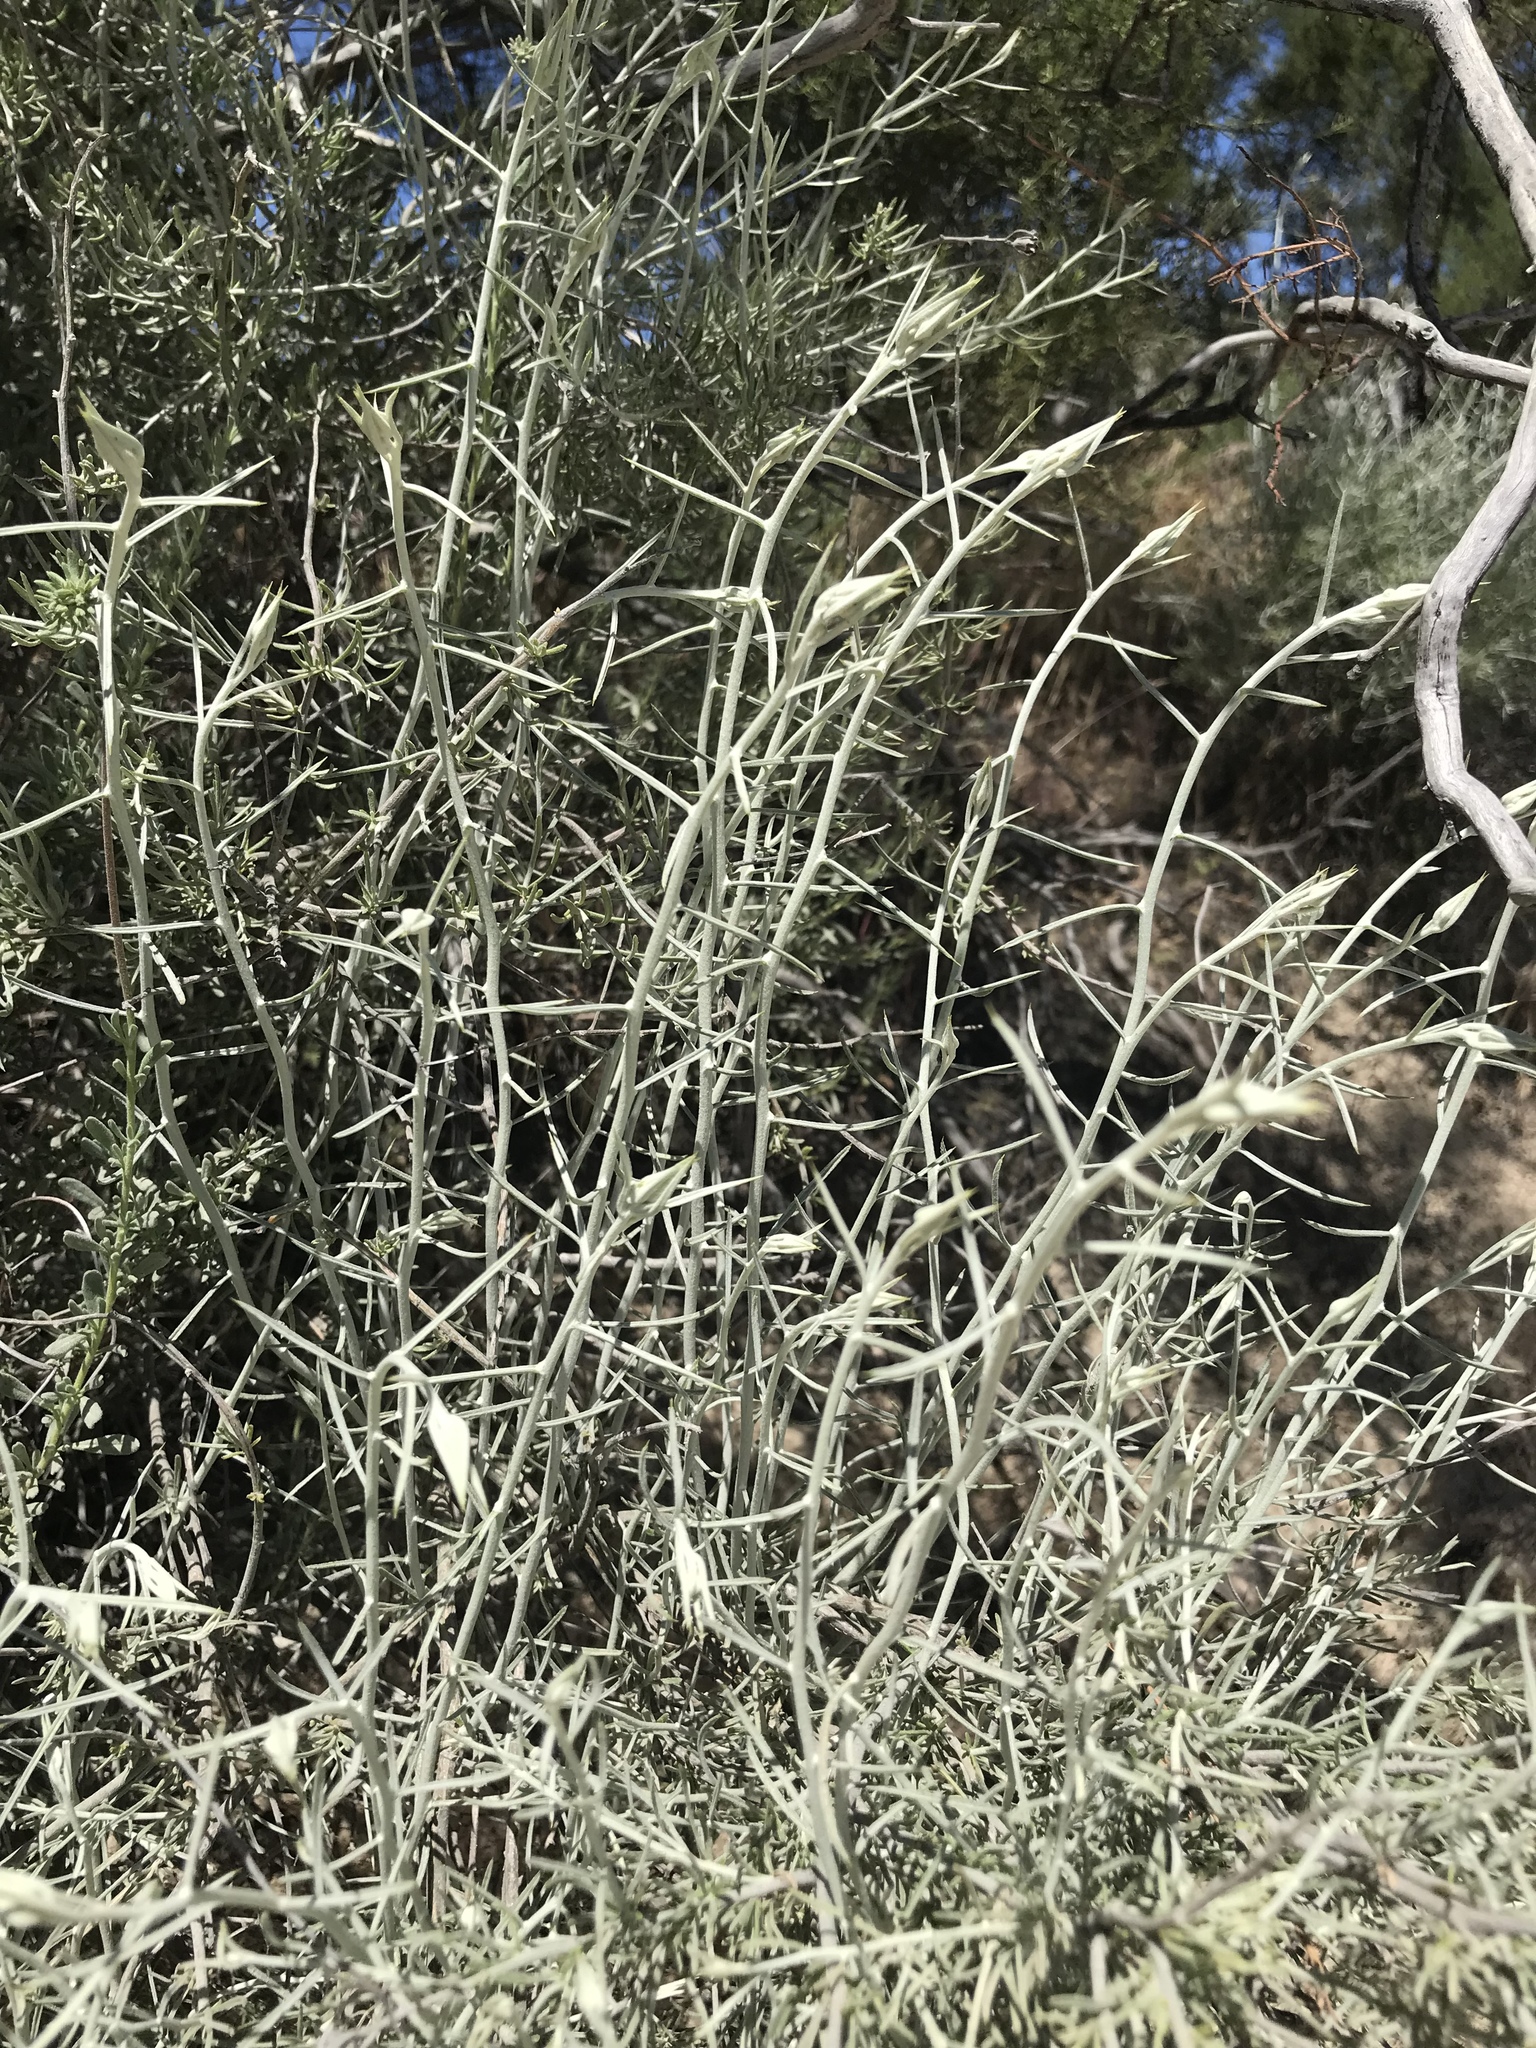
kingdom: Plantae
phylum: Tracheophyta
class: Magnoliopsida
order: Asterales
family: Asteraceae
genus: Tetradymia
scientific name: Tetradymia comosa
